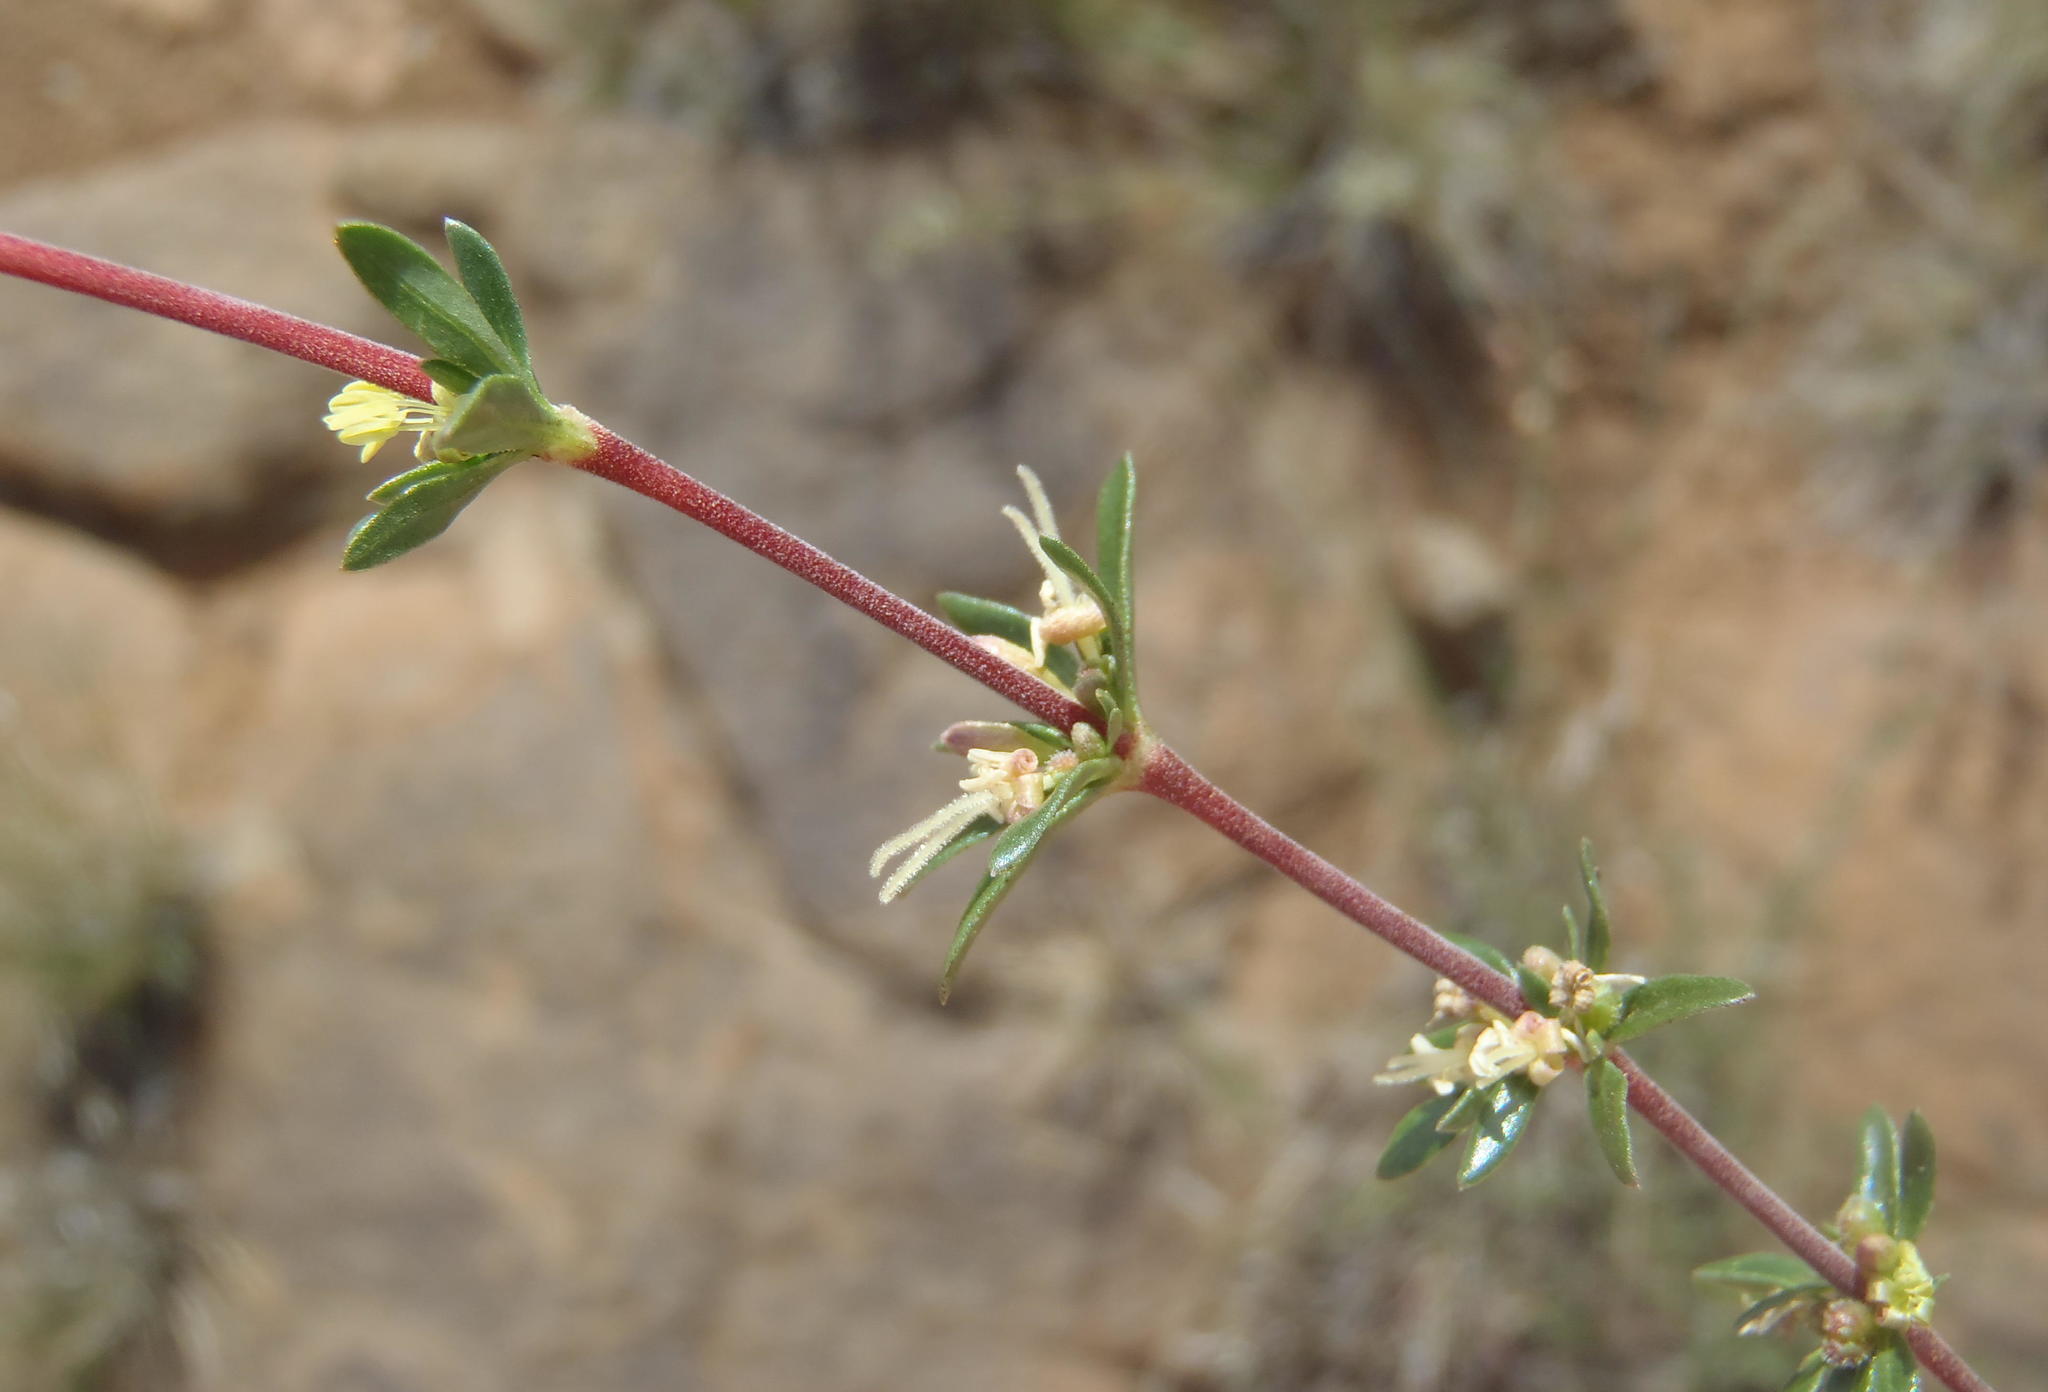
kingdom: Plantae
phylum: Tracheophyta
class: Magnoliopsida
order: Gentianales
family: Rubiaceae
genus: Anthospermum
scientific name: Anthospermum spathulatum
